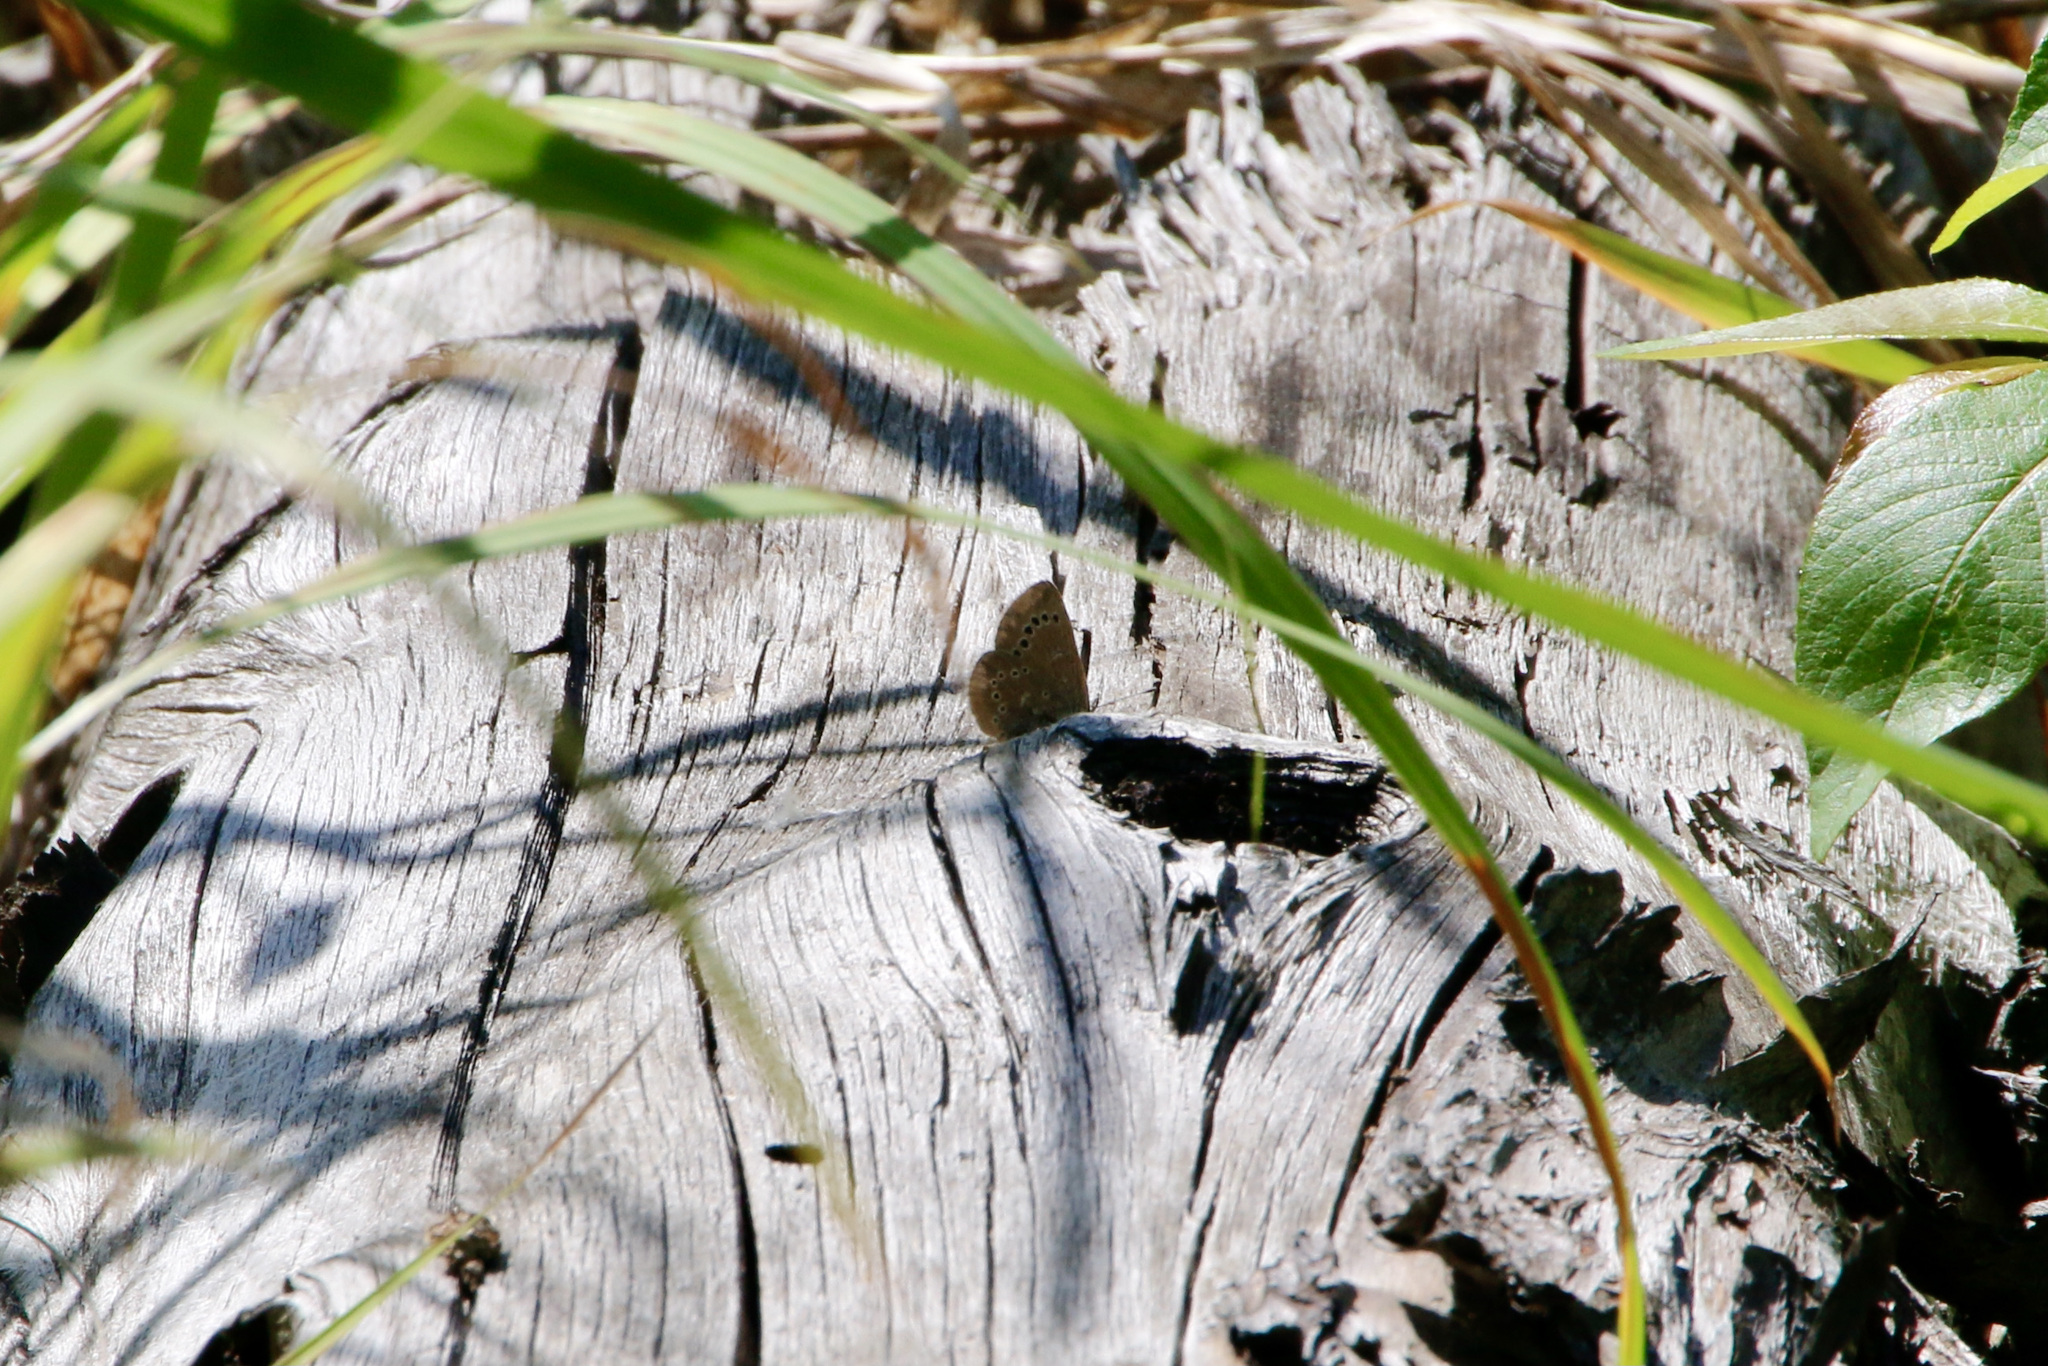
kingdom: Animalia
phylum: Arthropoda
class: Insecta
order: Lepidoptera
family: Lycaenidae
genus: Glaucopsyche
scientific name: Glaucopsyche lygdamus
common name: Silvery blue
